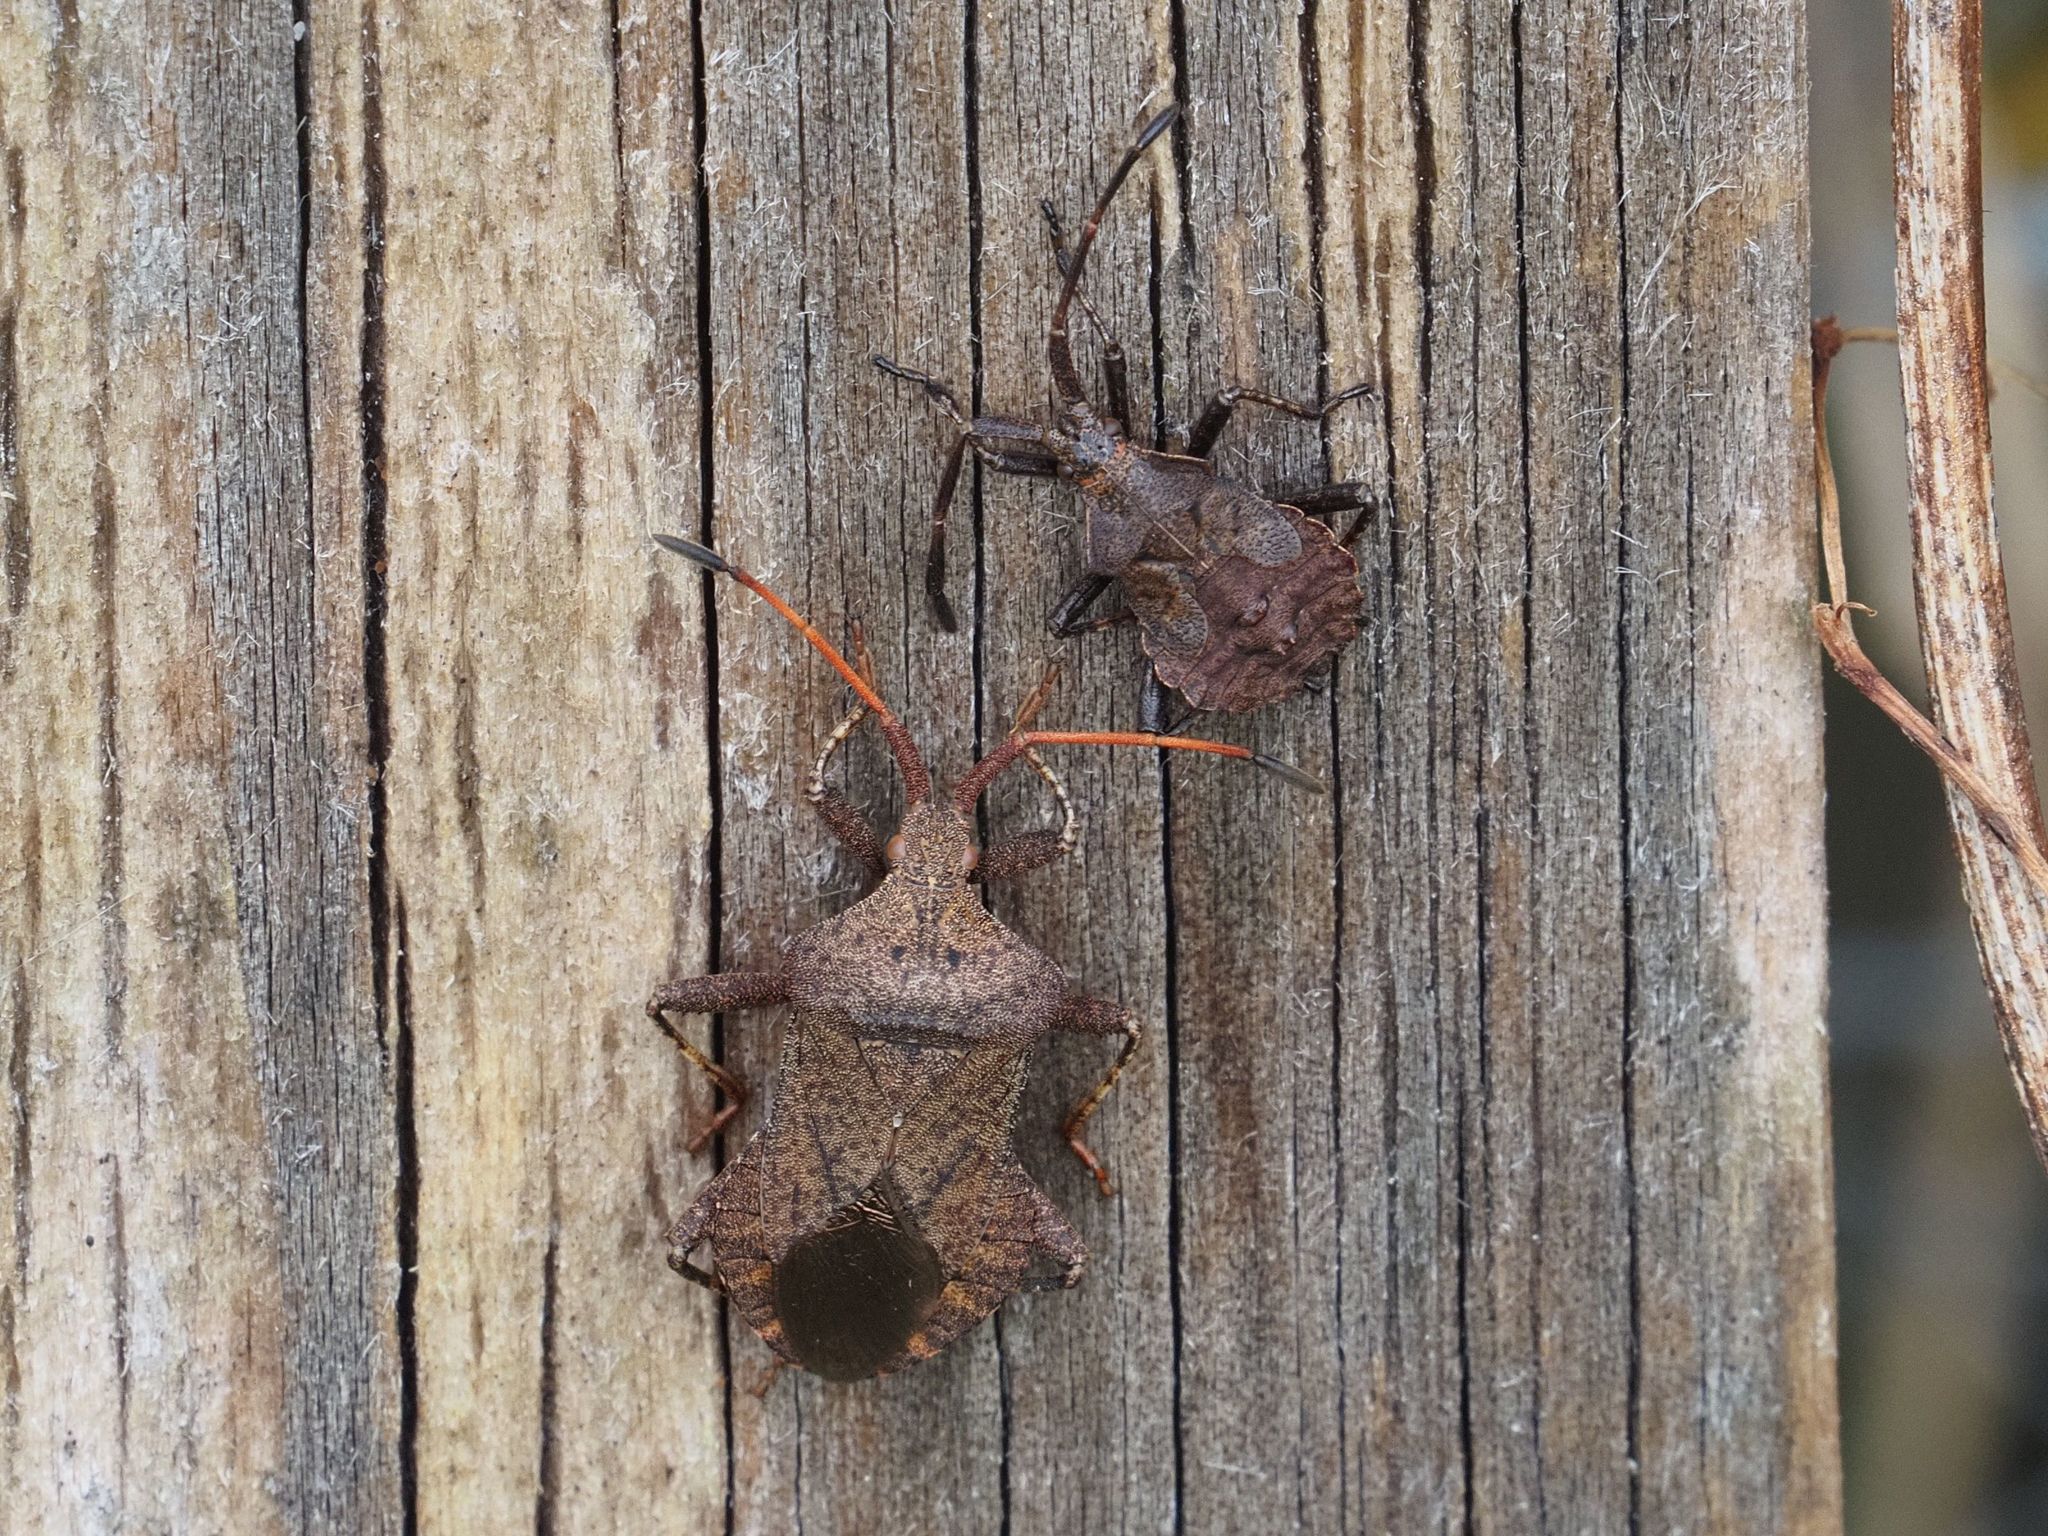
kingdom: Animalia
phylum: Arthropoda
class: Insecta
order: Hemiptera
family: Coreidae
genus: Coreus
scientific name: Coreus marginatus
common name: Dock bug
